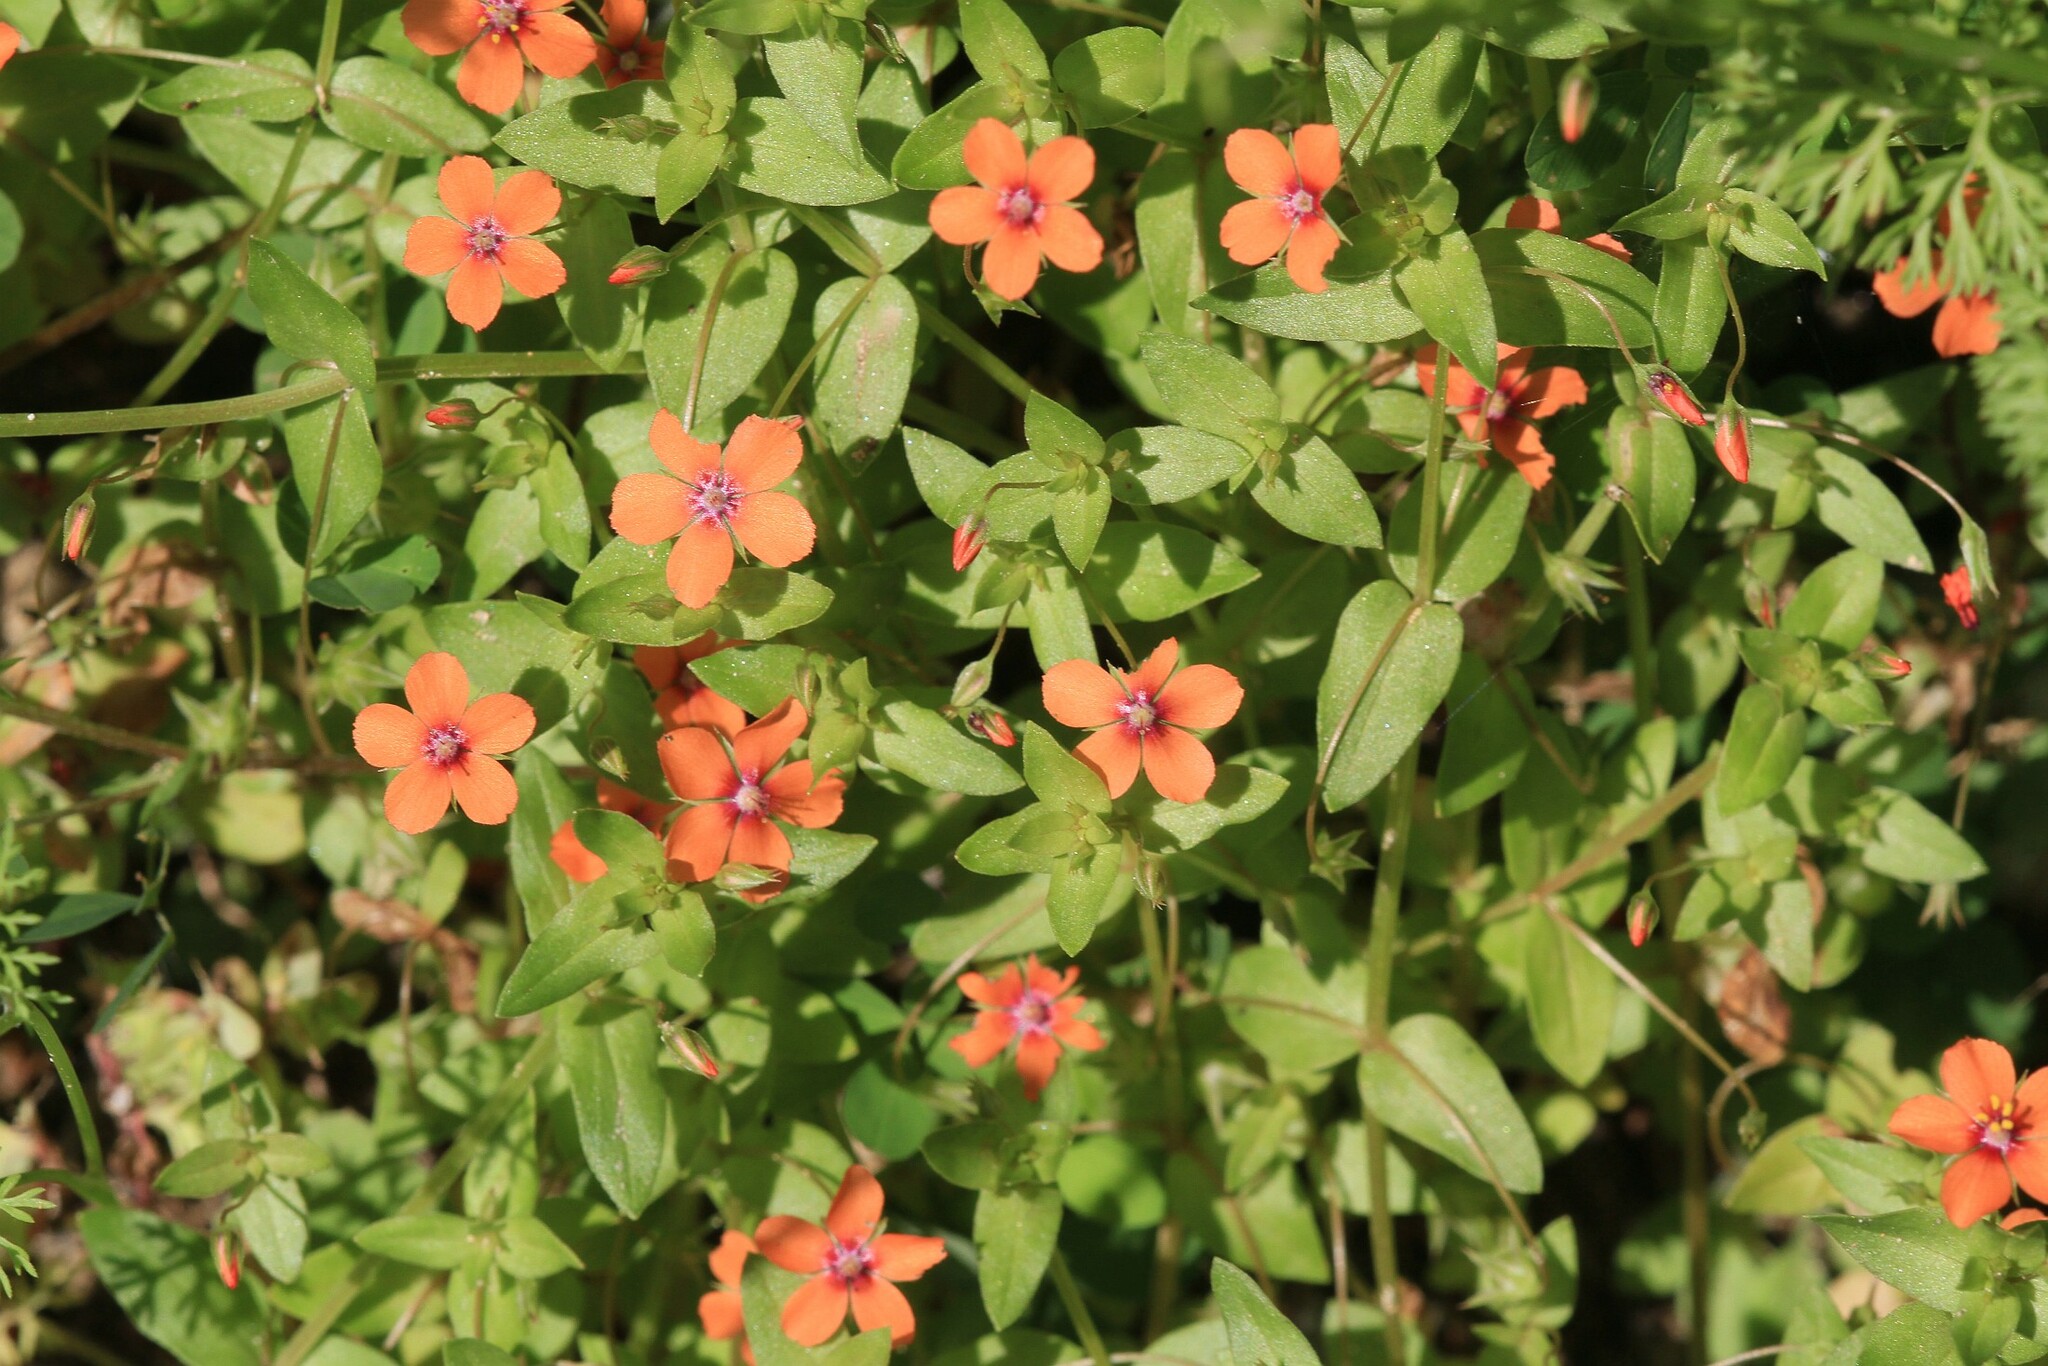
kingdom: Plantae
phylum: Tracheophyta
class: Magnoliopsida
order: Ericales
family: Primulaceae
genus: Lysimachia
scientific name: Lysimachia arvensis
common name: Scarlet pimpernel
